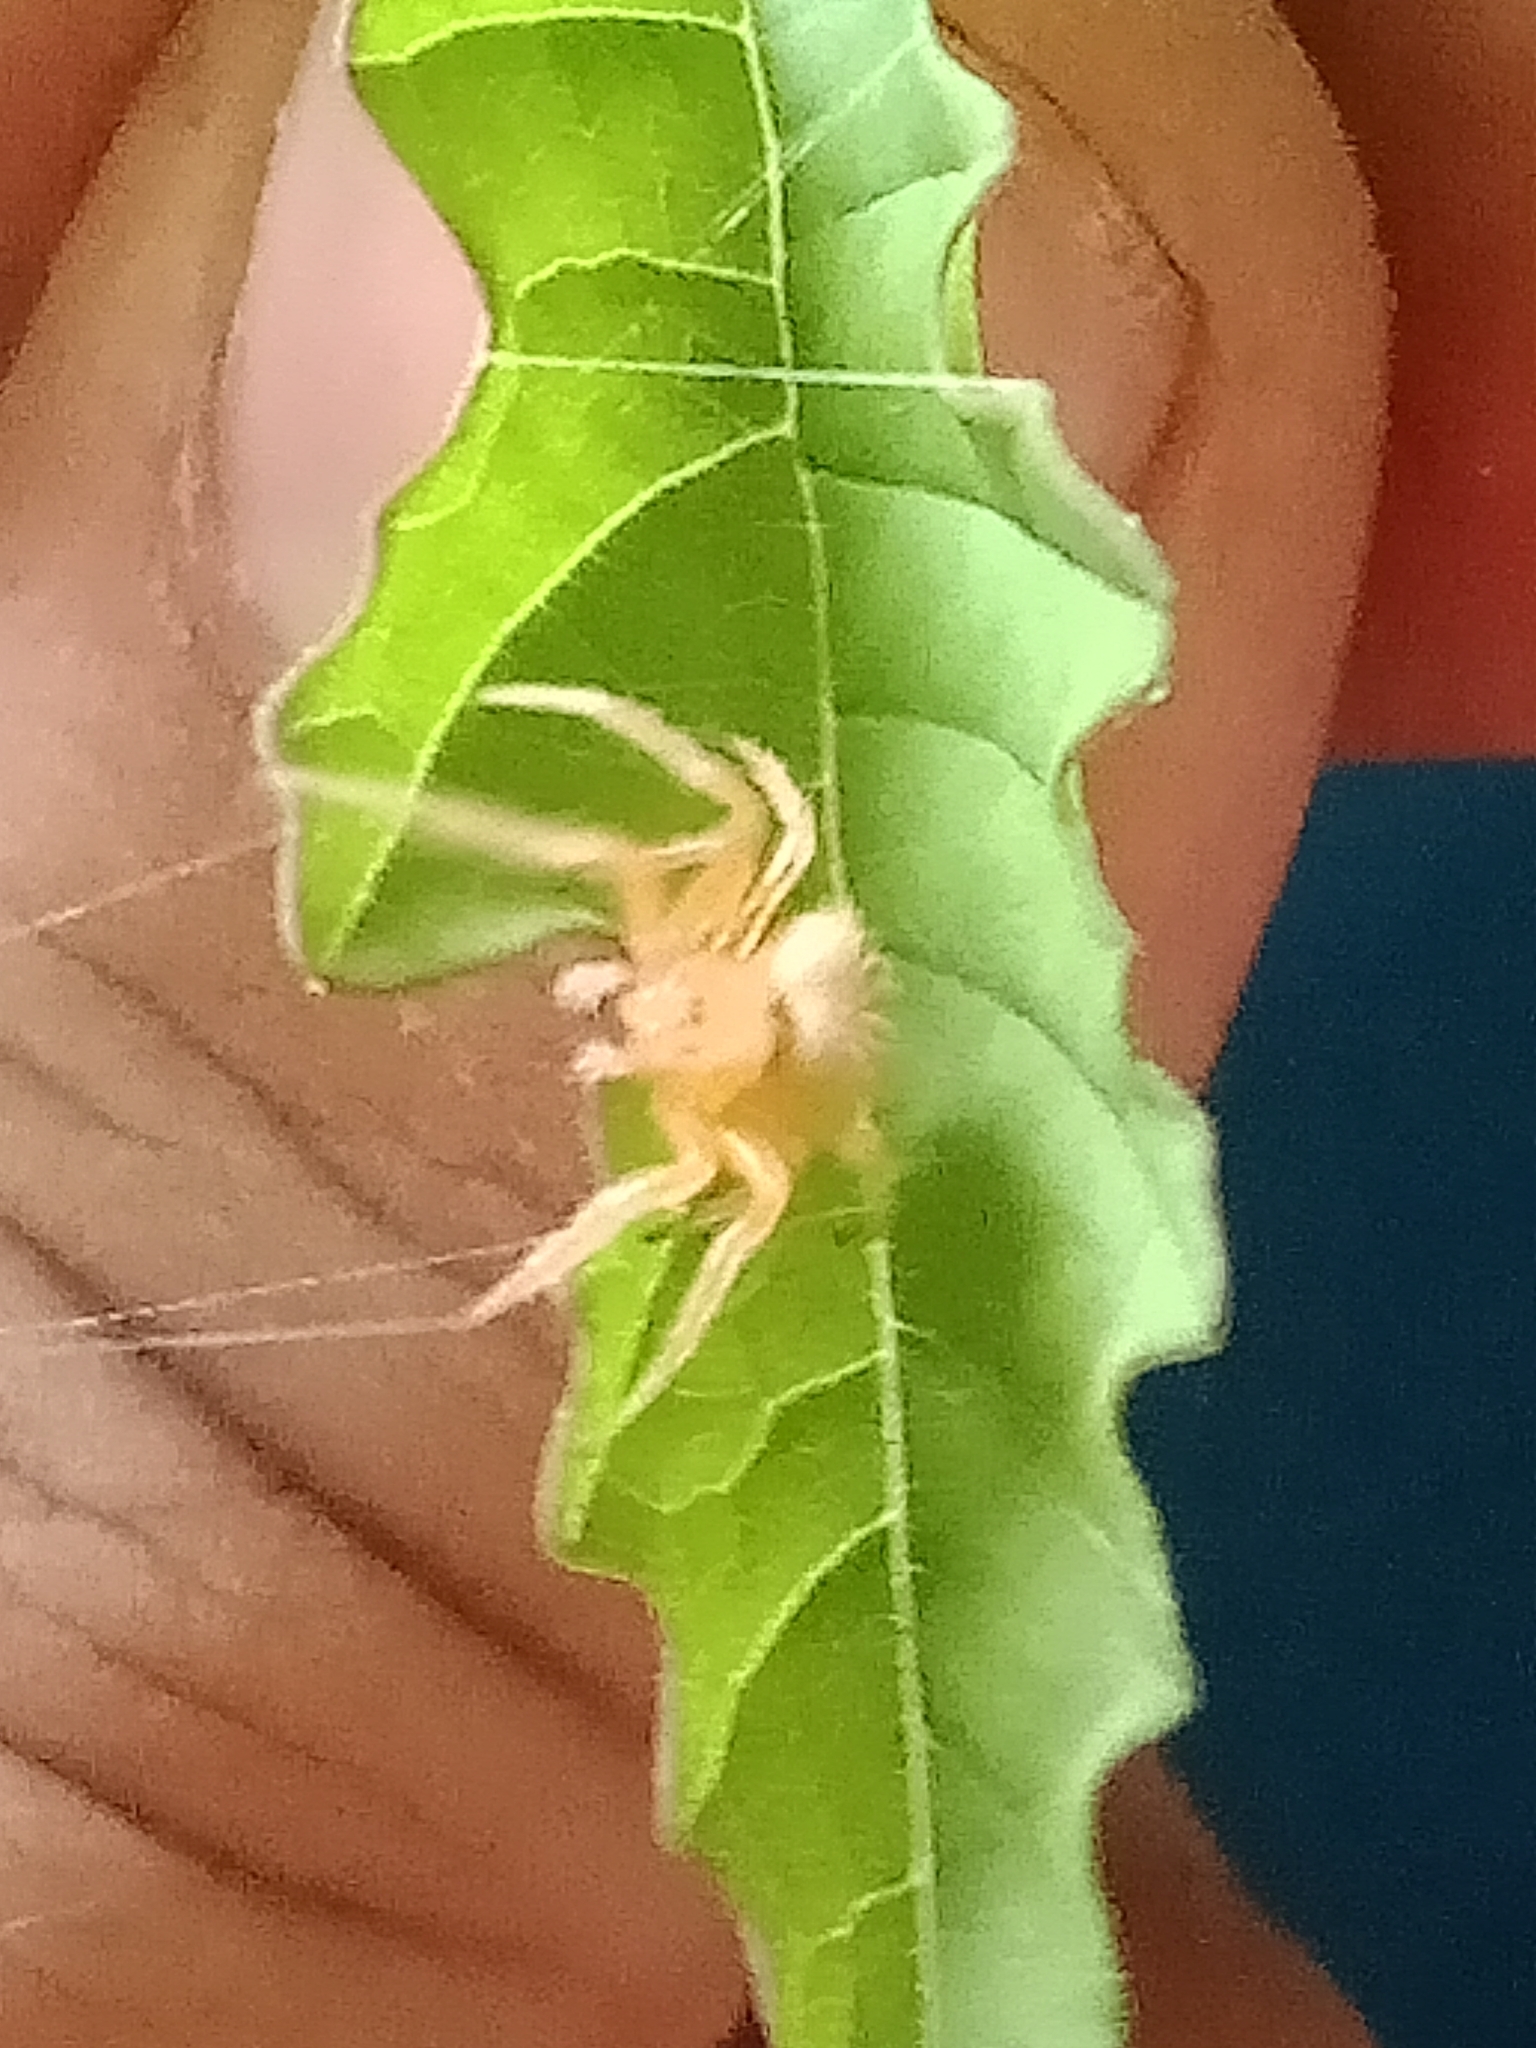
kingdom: Animalia
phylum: Arthropoda
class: Arachnida
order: Araneae
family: Araneidae
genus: Eriophora
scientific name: Eriophora ravilla
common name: Orb weavers
